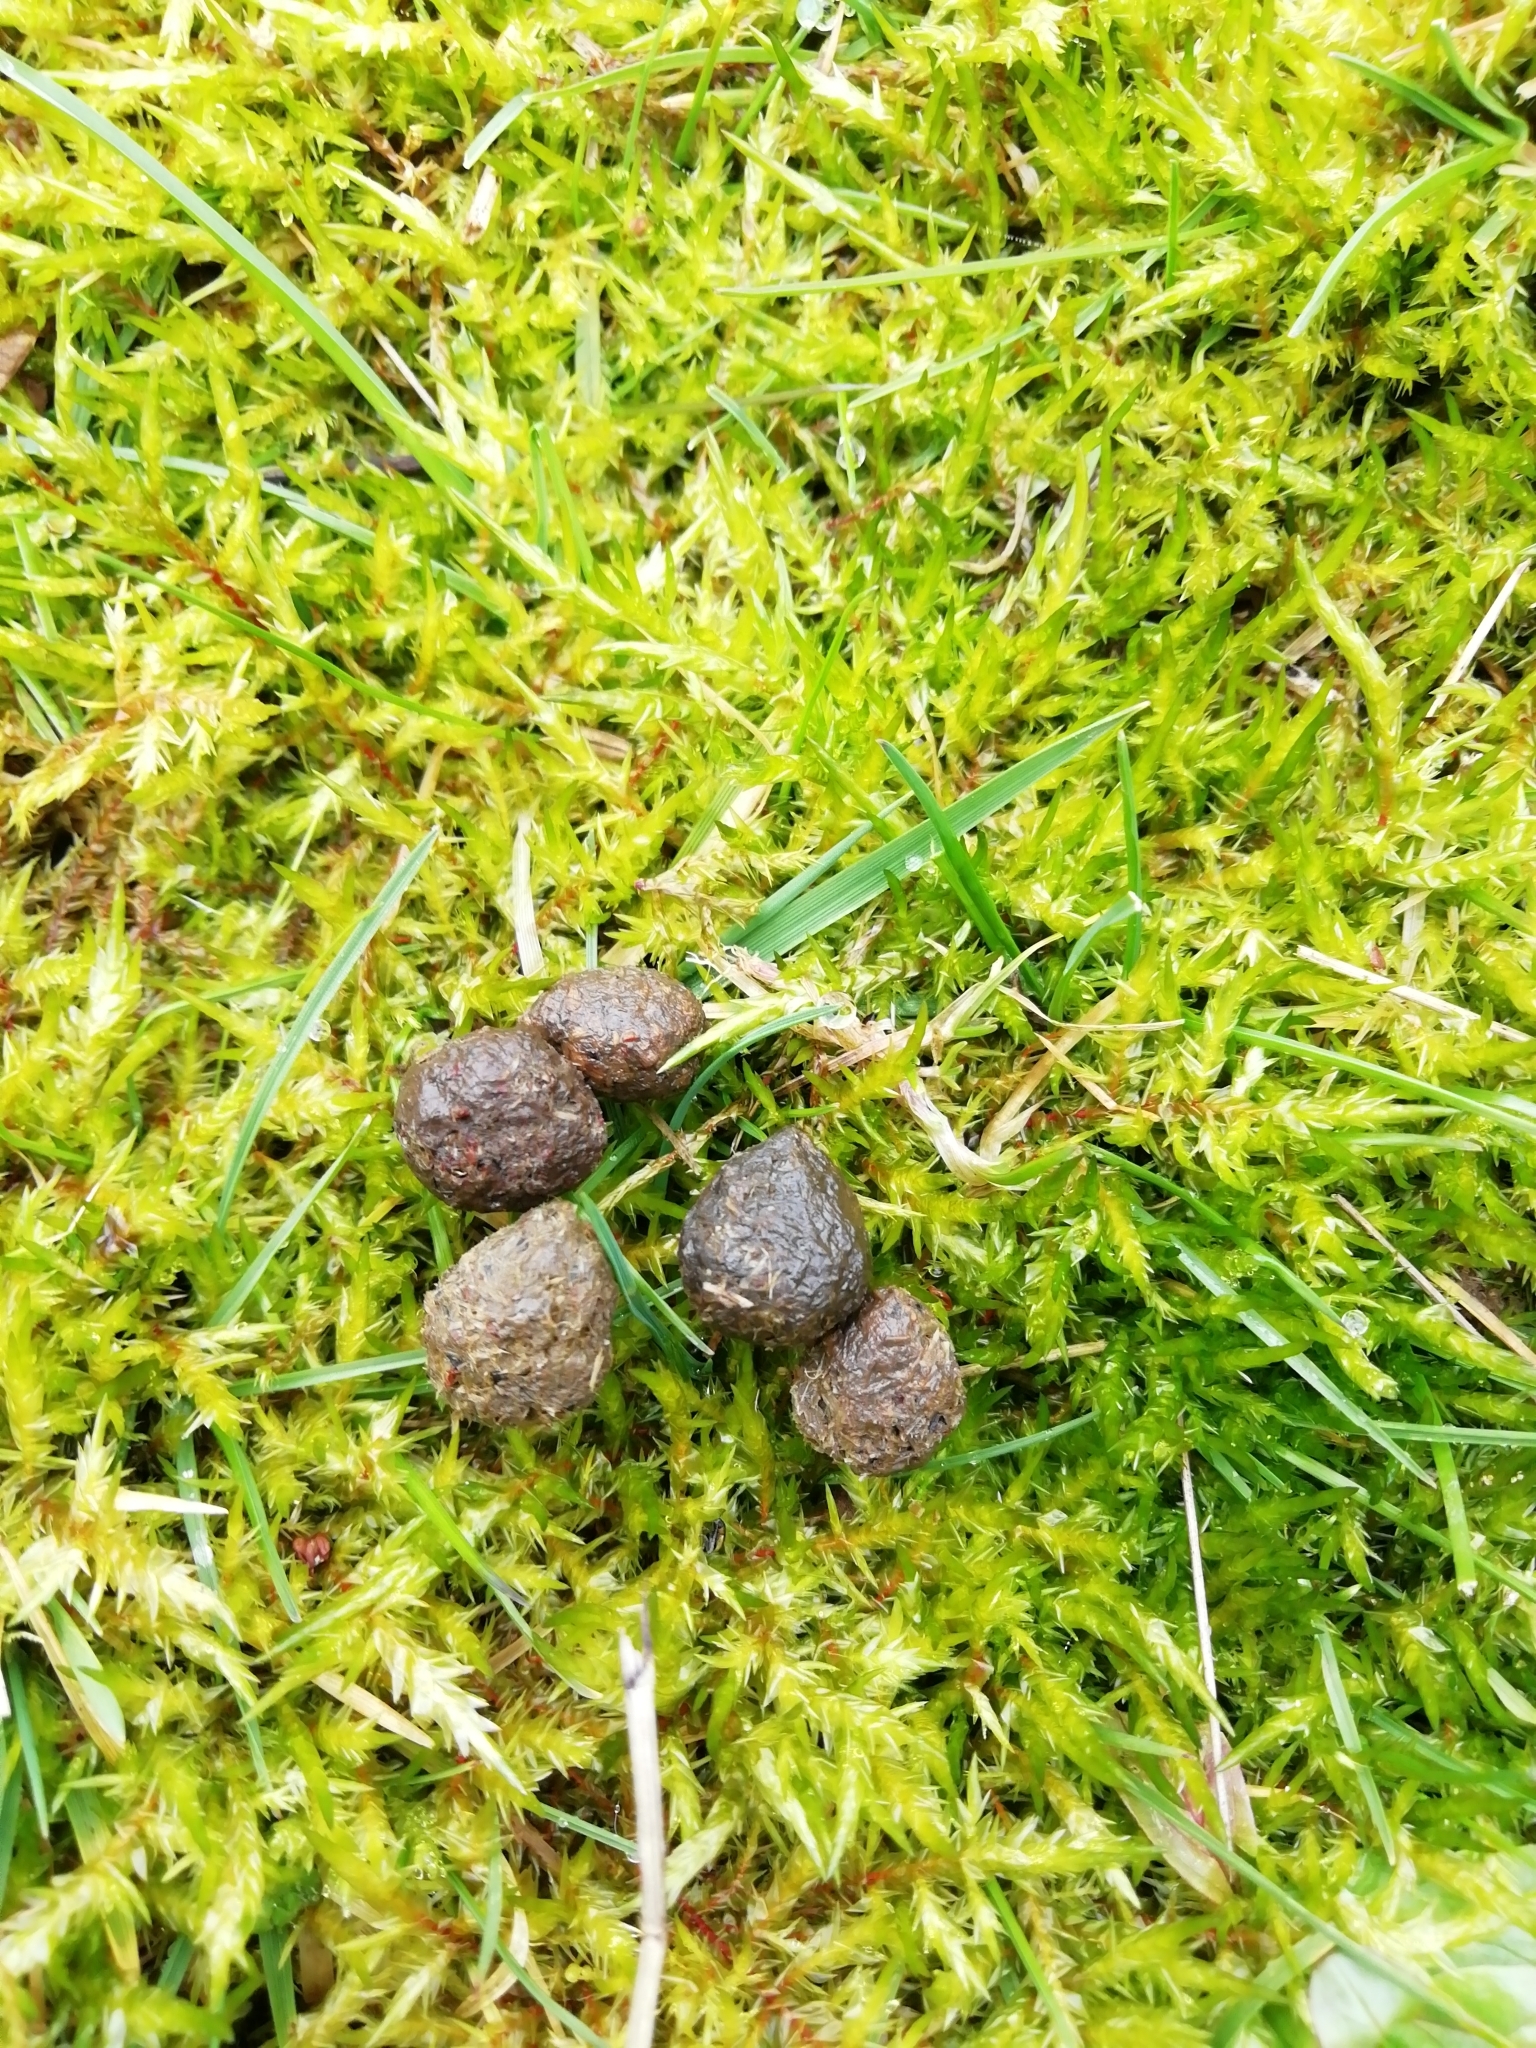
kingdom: Animalia
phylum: Chordata
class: Mammalia
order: Lagomorpha
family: Leporidae
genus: Oryctolagus
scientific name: Oryctolagus cuniculus
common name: European rabbit
